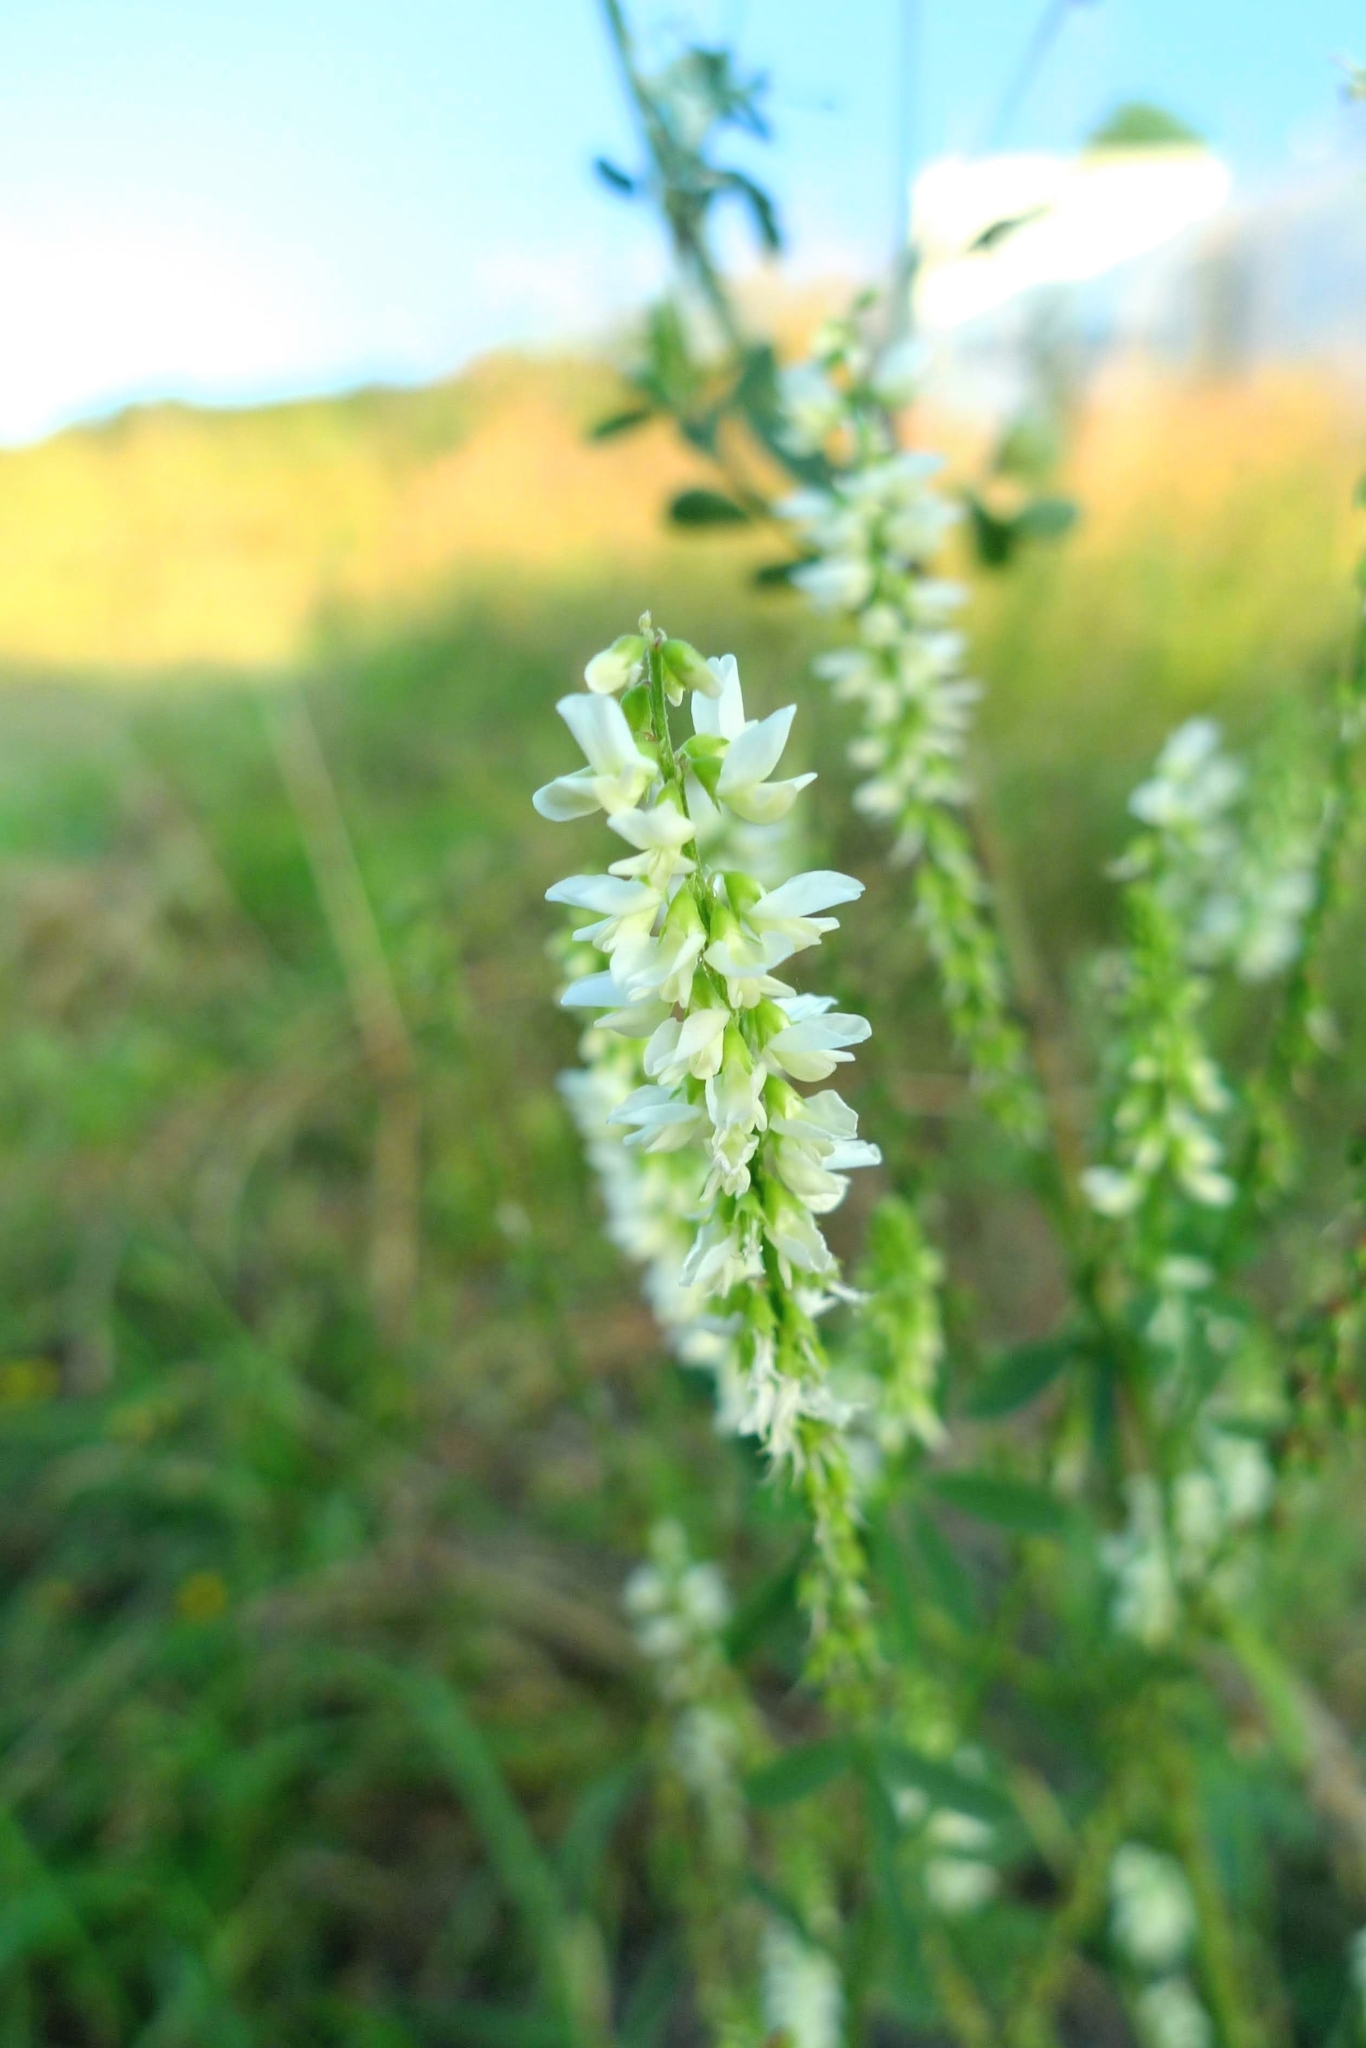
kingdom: Plantae
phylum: Tracheophyta
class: Magnoliopsida
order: Fabales
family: Fabaceae
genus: Melilotus
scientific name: Melilotus albus
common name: White melilot
